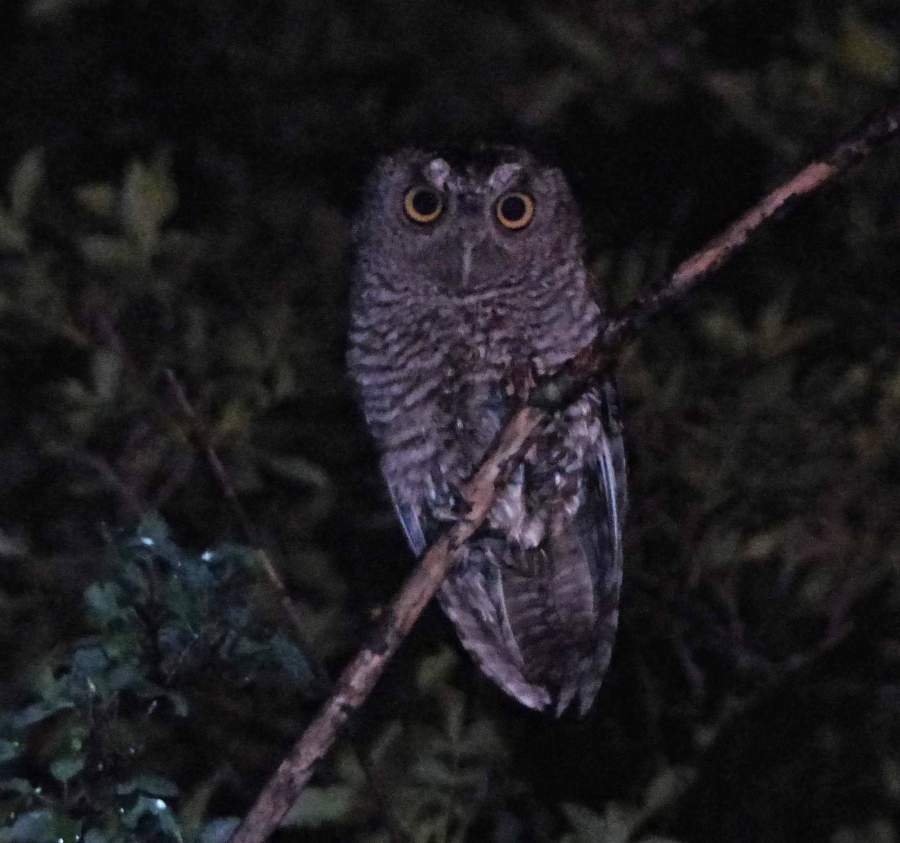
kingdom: Animalia
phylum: Chordata
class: Aves
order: Strigiformes
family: Strigidae
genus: Megascops
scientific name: Megascops asio
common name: Eastern screech-owl
